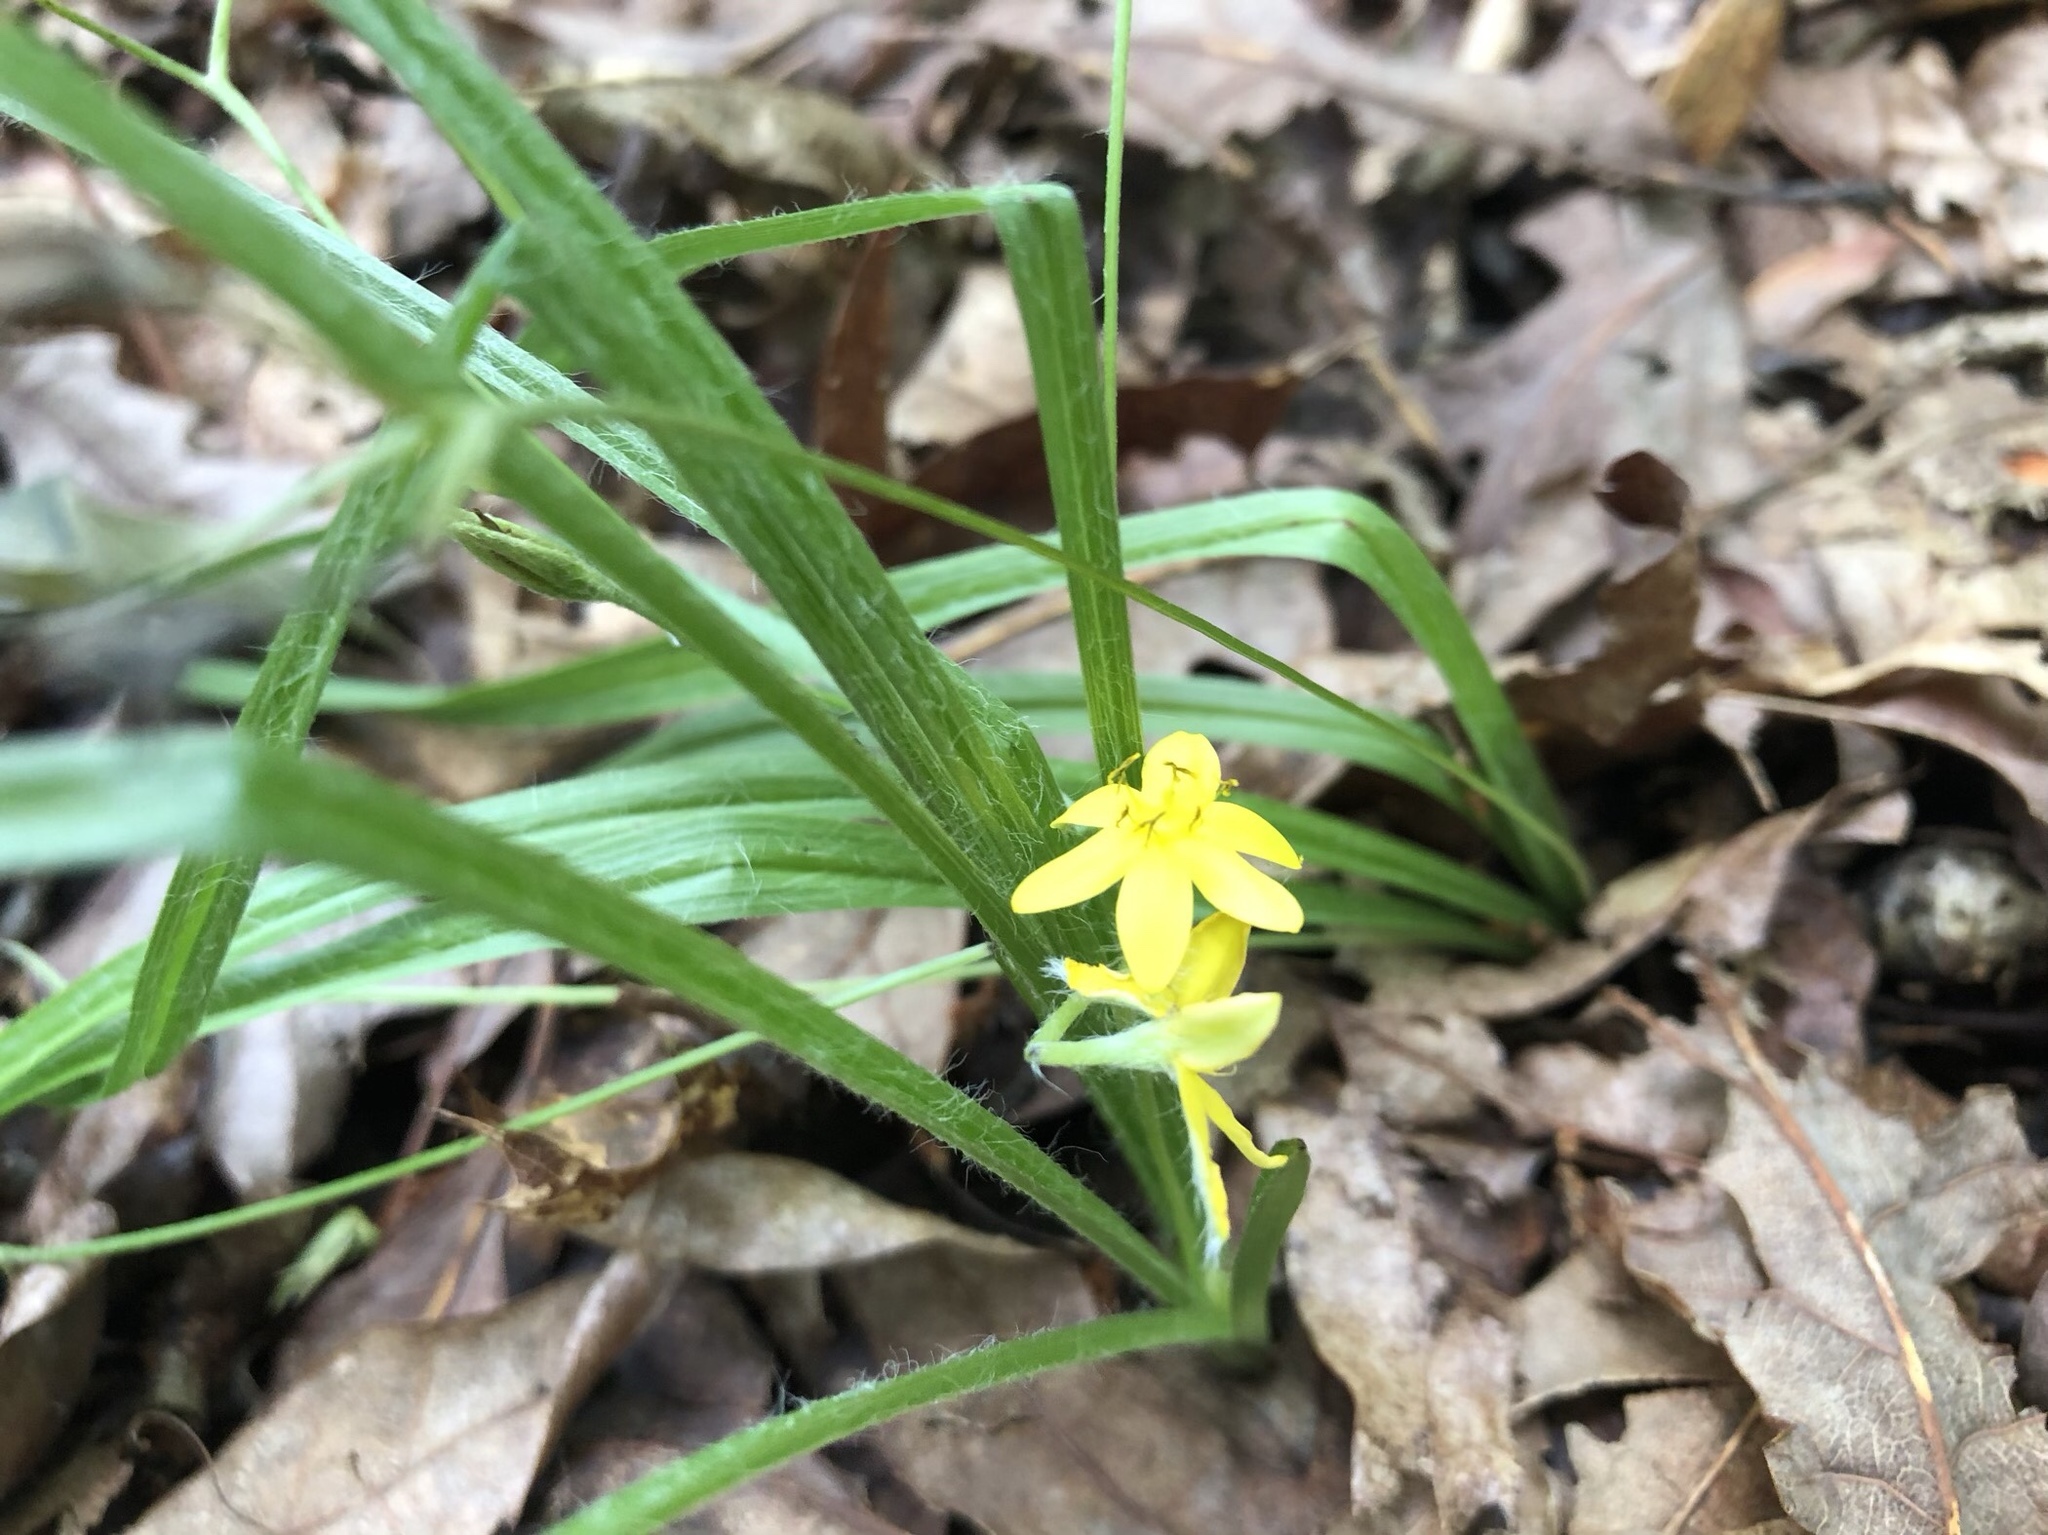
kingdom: Plantae
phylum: Tracheophyta
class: Liliopsida
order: Asparagales
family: Hypoxidaceae
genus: Hypoxis
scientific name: Hypoxis hirsuta
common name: Common goldstar
